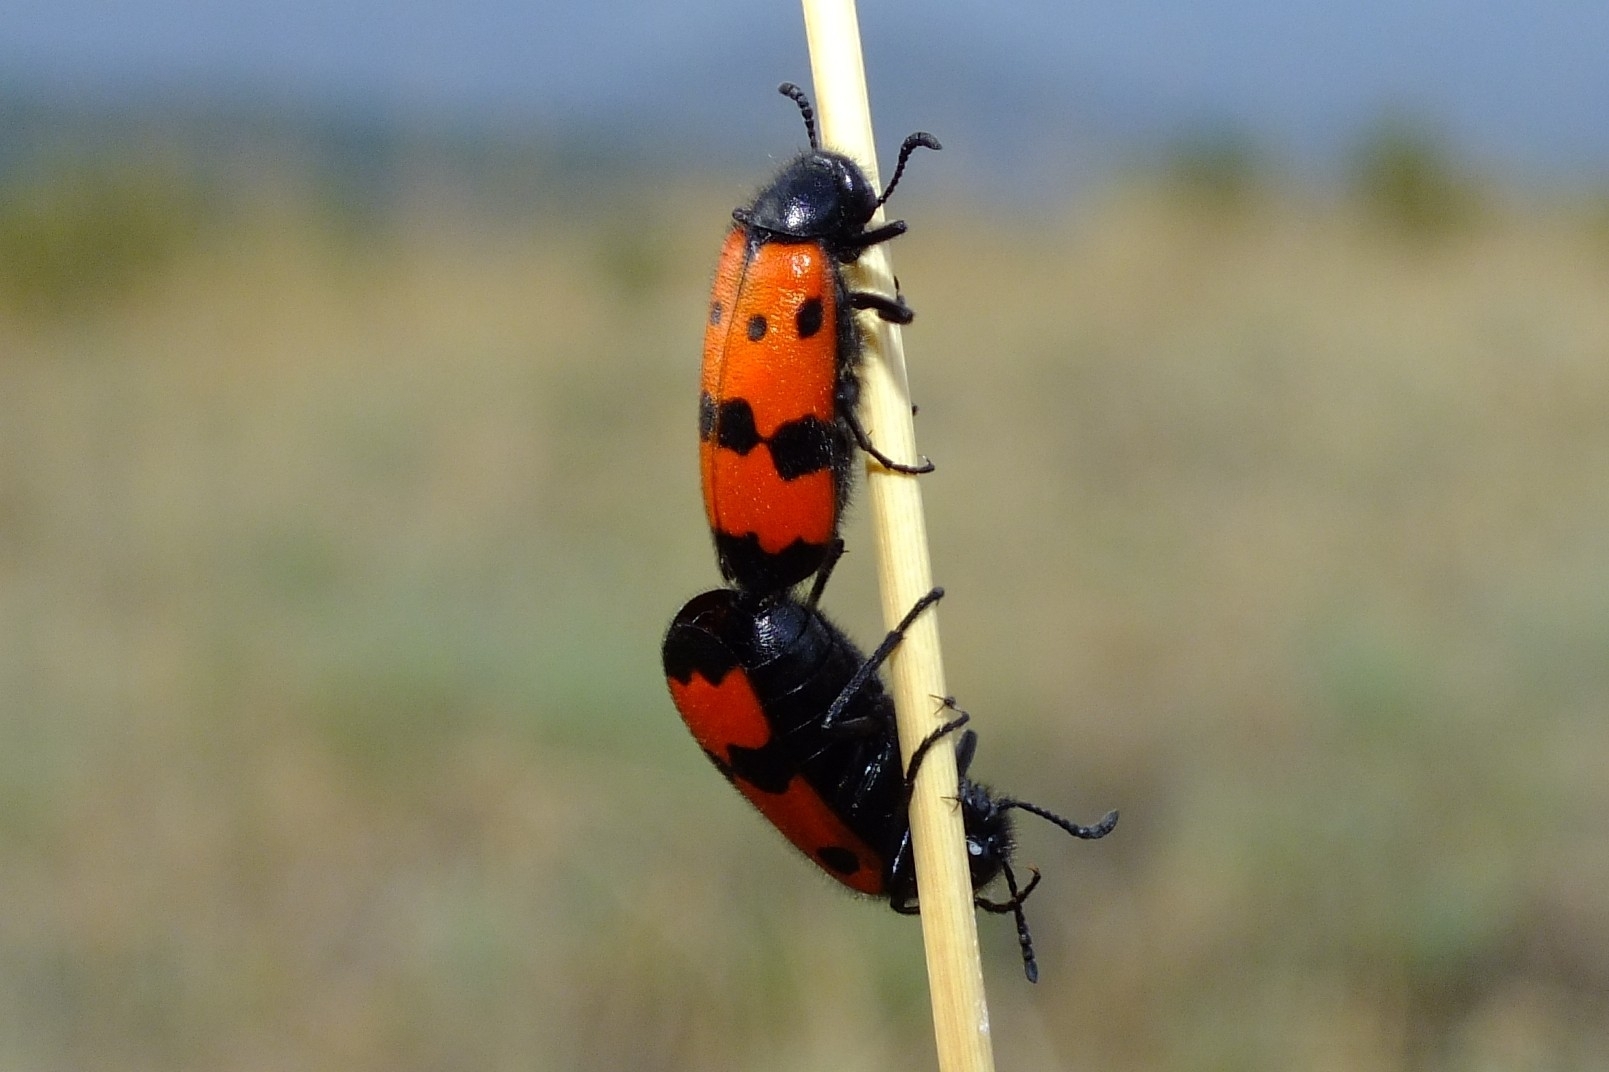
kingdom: Animalia
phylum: Arthropoda
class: Insecta
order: Coleoptera
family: Meloidae
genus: Mylabris
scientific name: Mylabris quadripunctata
